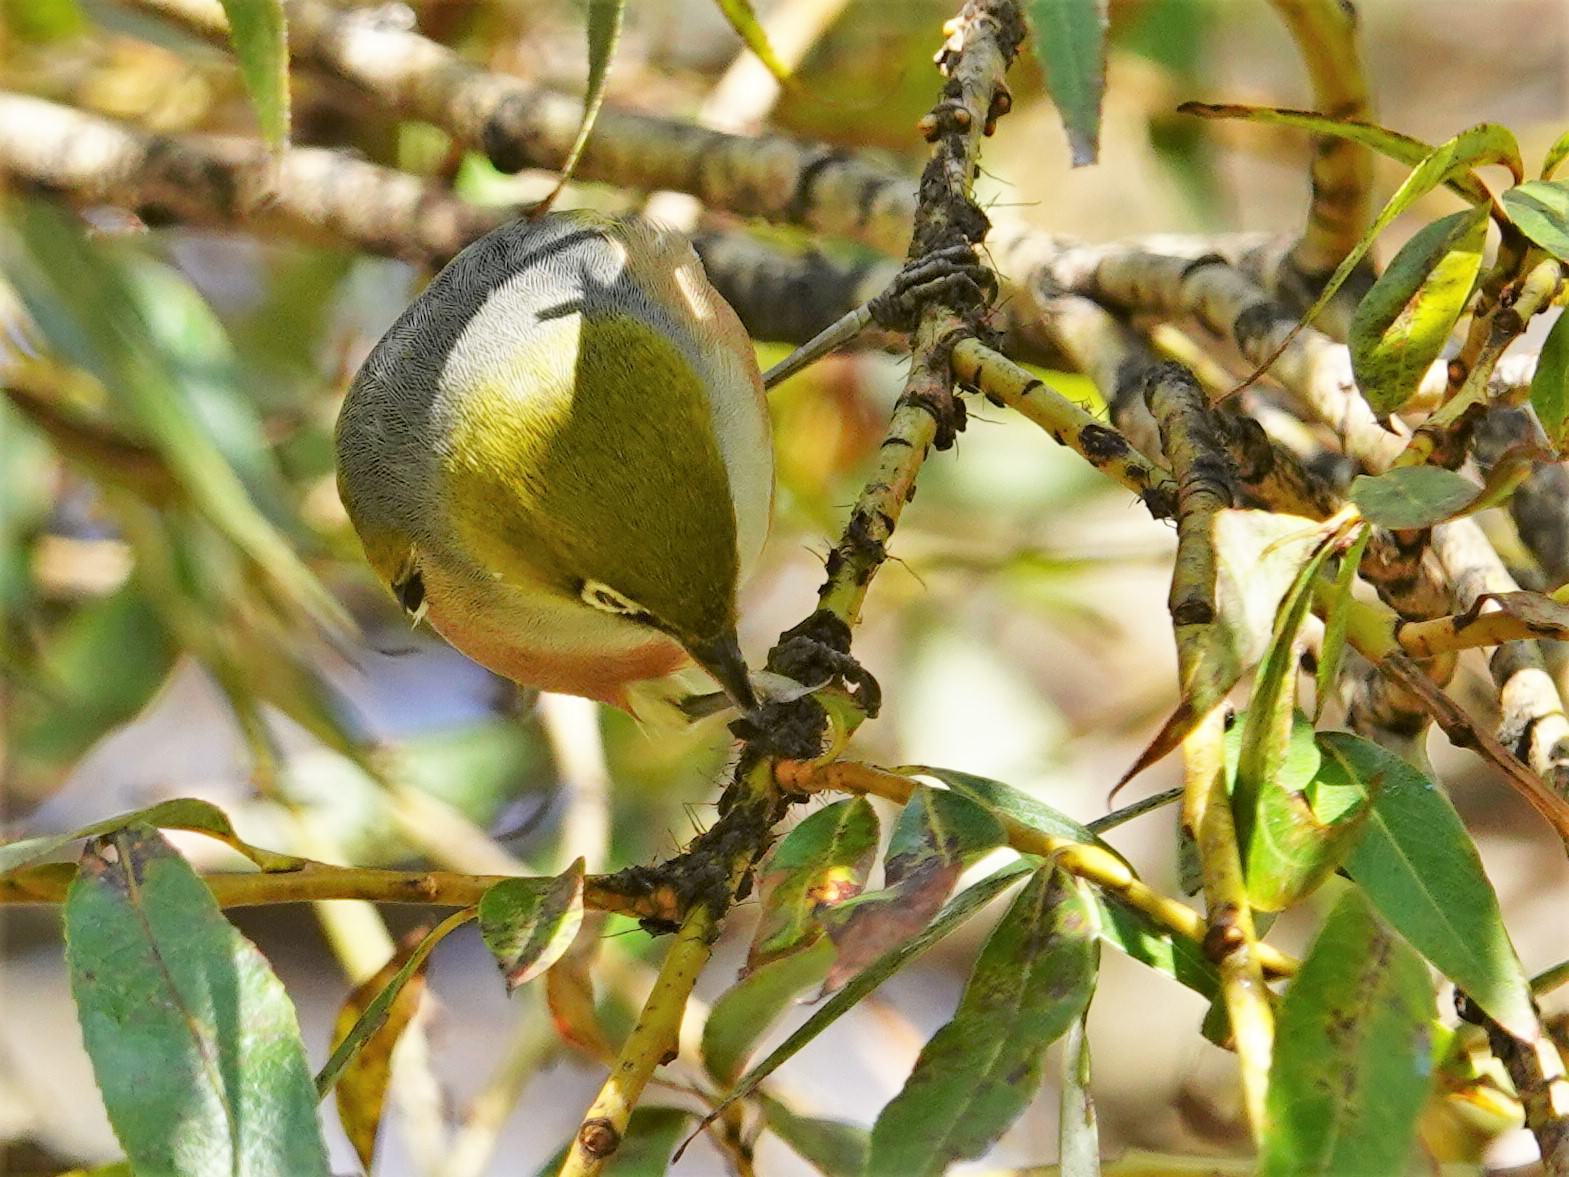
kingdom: Animalia
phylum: Chordata
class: Aves
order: Passeriformes
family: Zosteropidae
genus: Zosterops
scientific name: Zosterops lateralis
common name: Silvereye
